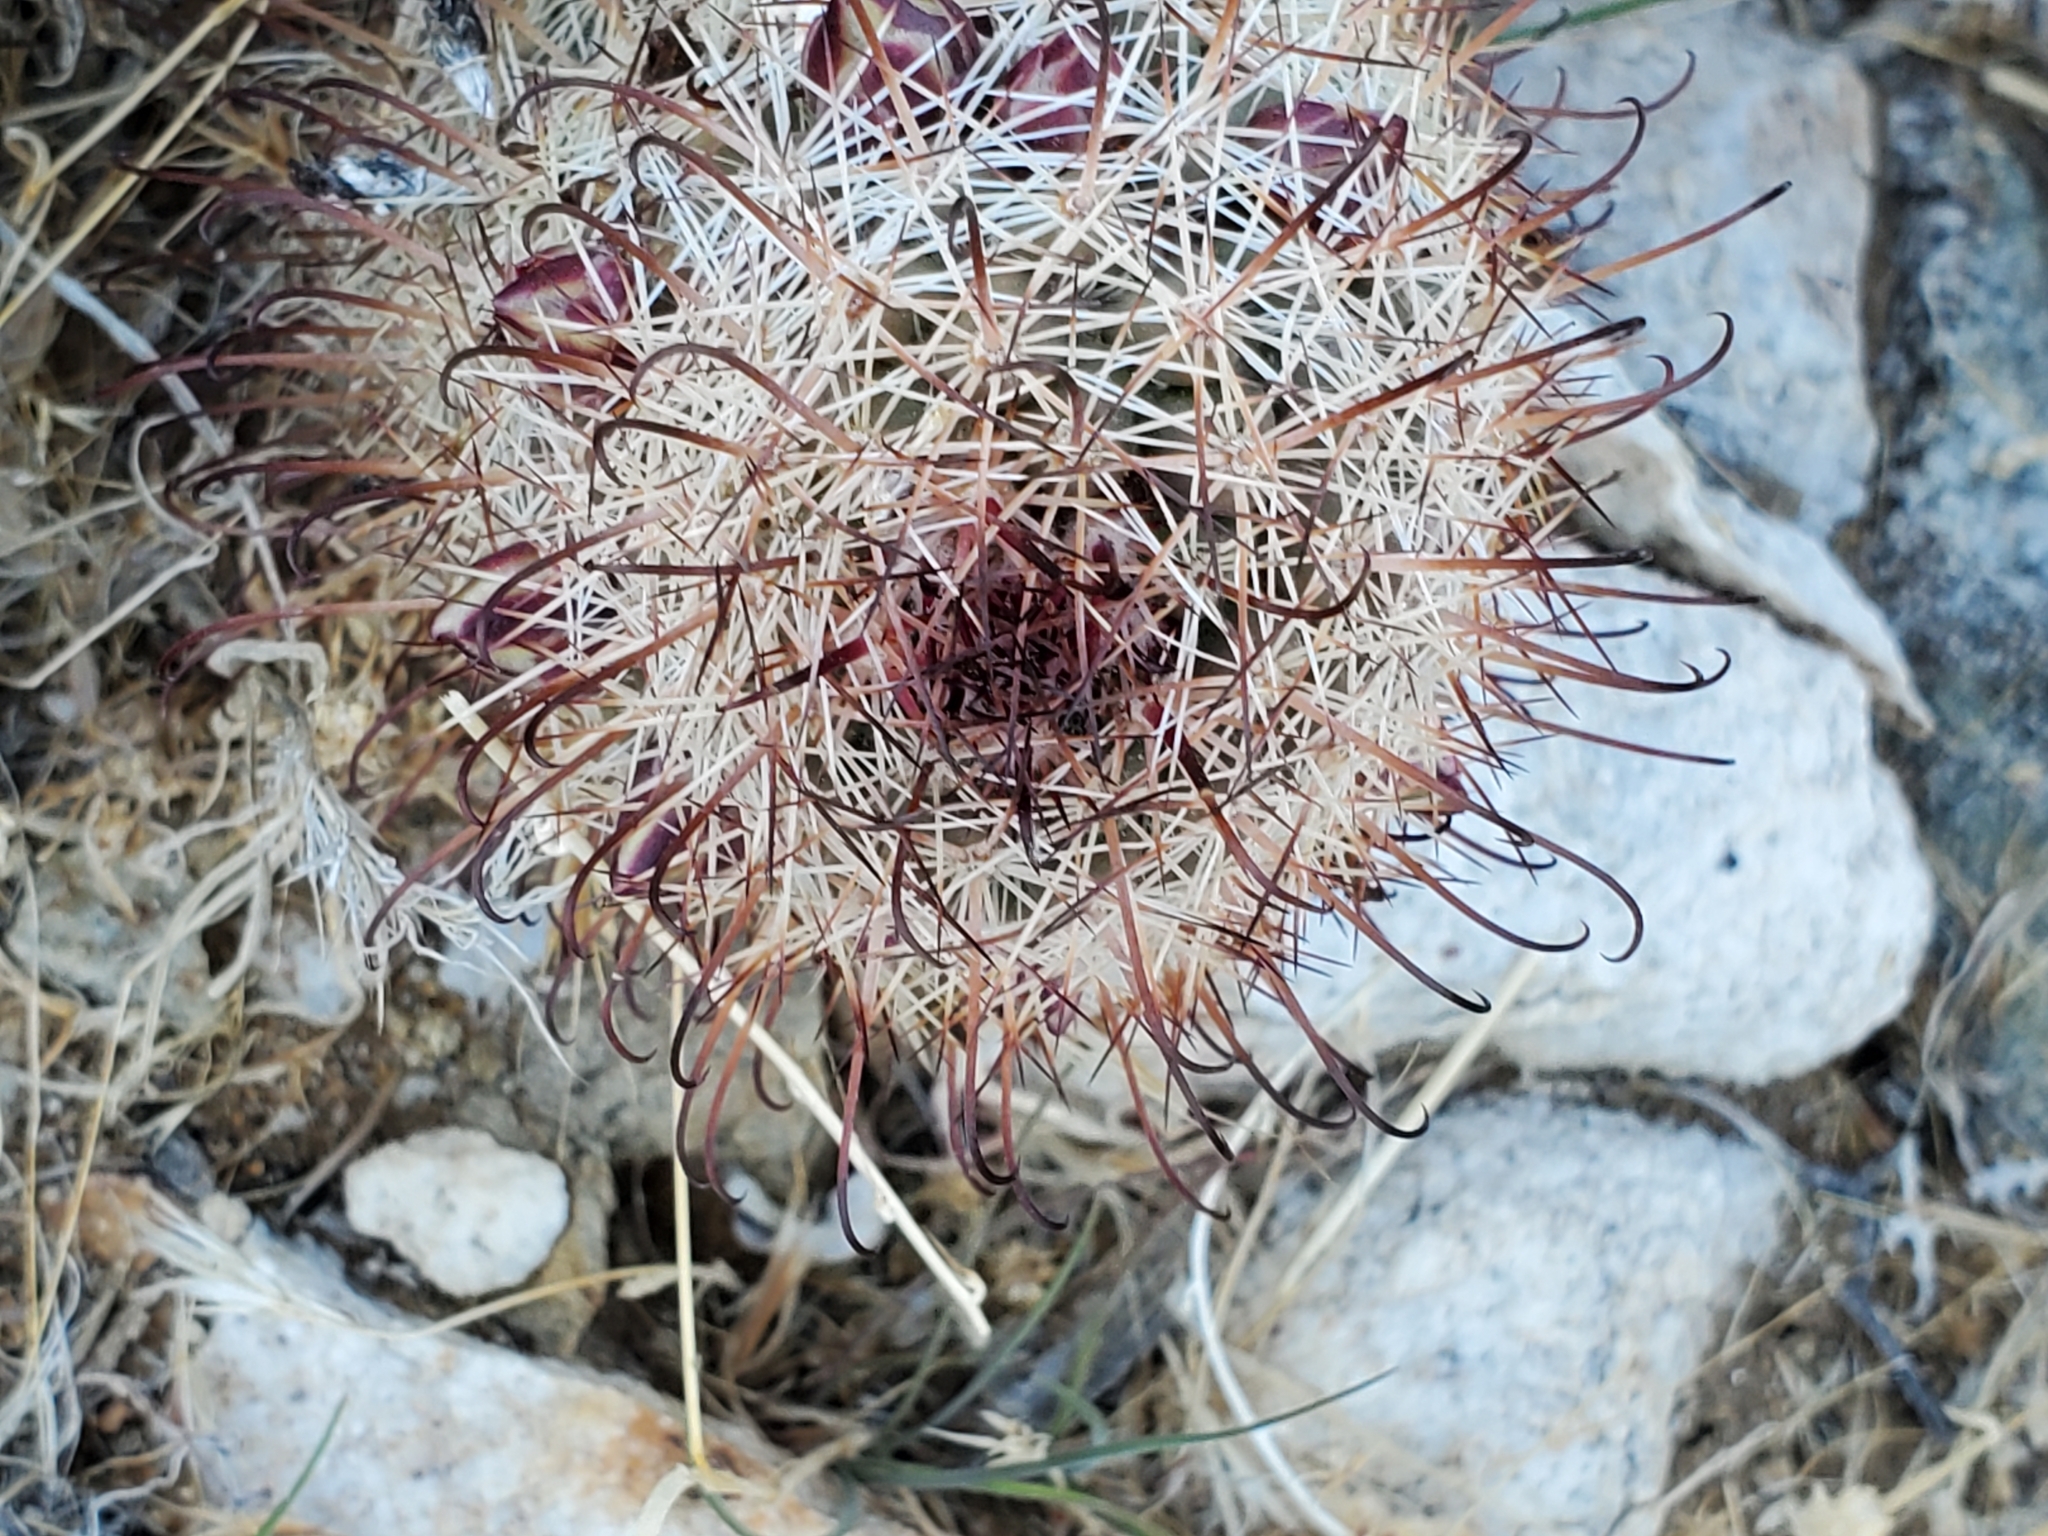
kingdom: Plantae
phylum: Tracheophyta
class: Magnoliopsida
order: Caryophyllales
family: Cactaceae
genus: Cochemiea
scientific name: Cochemiea dioica
